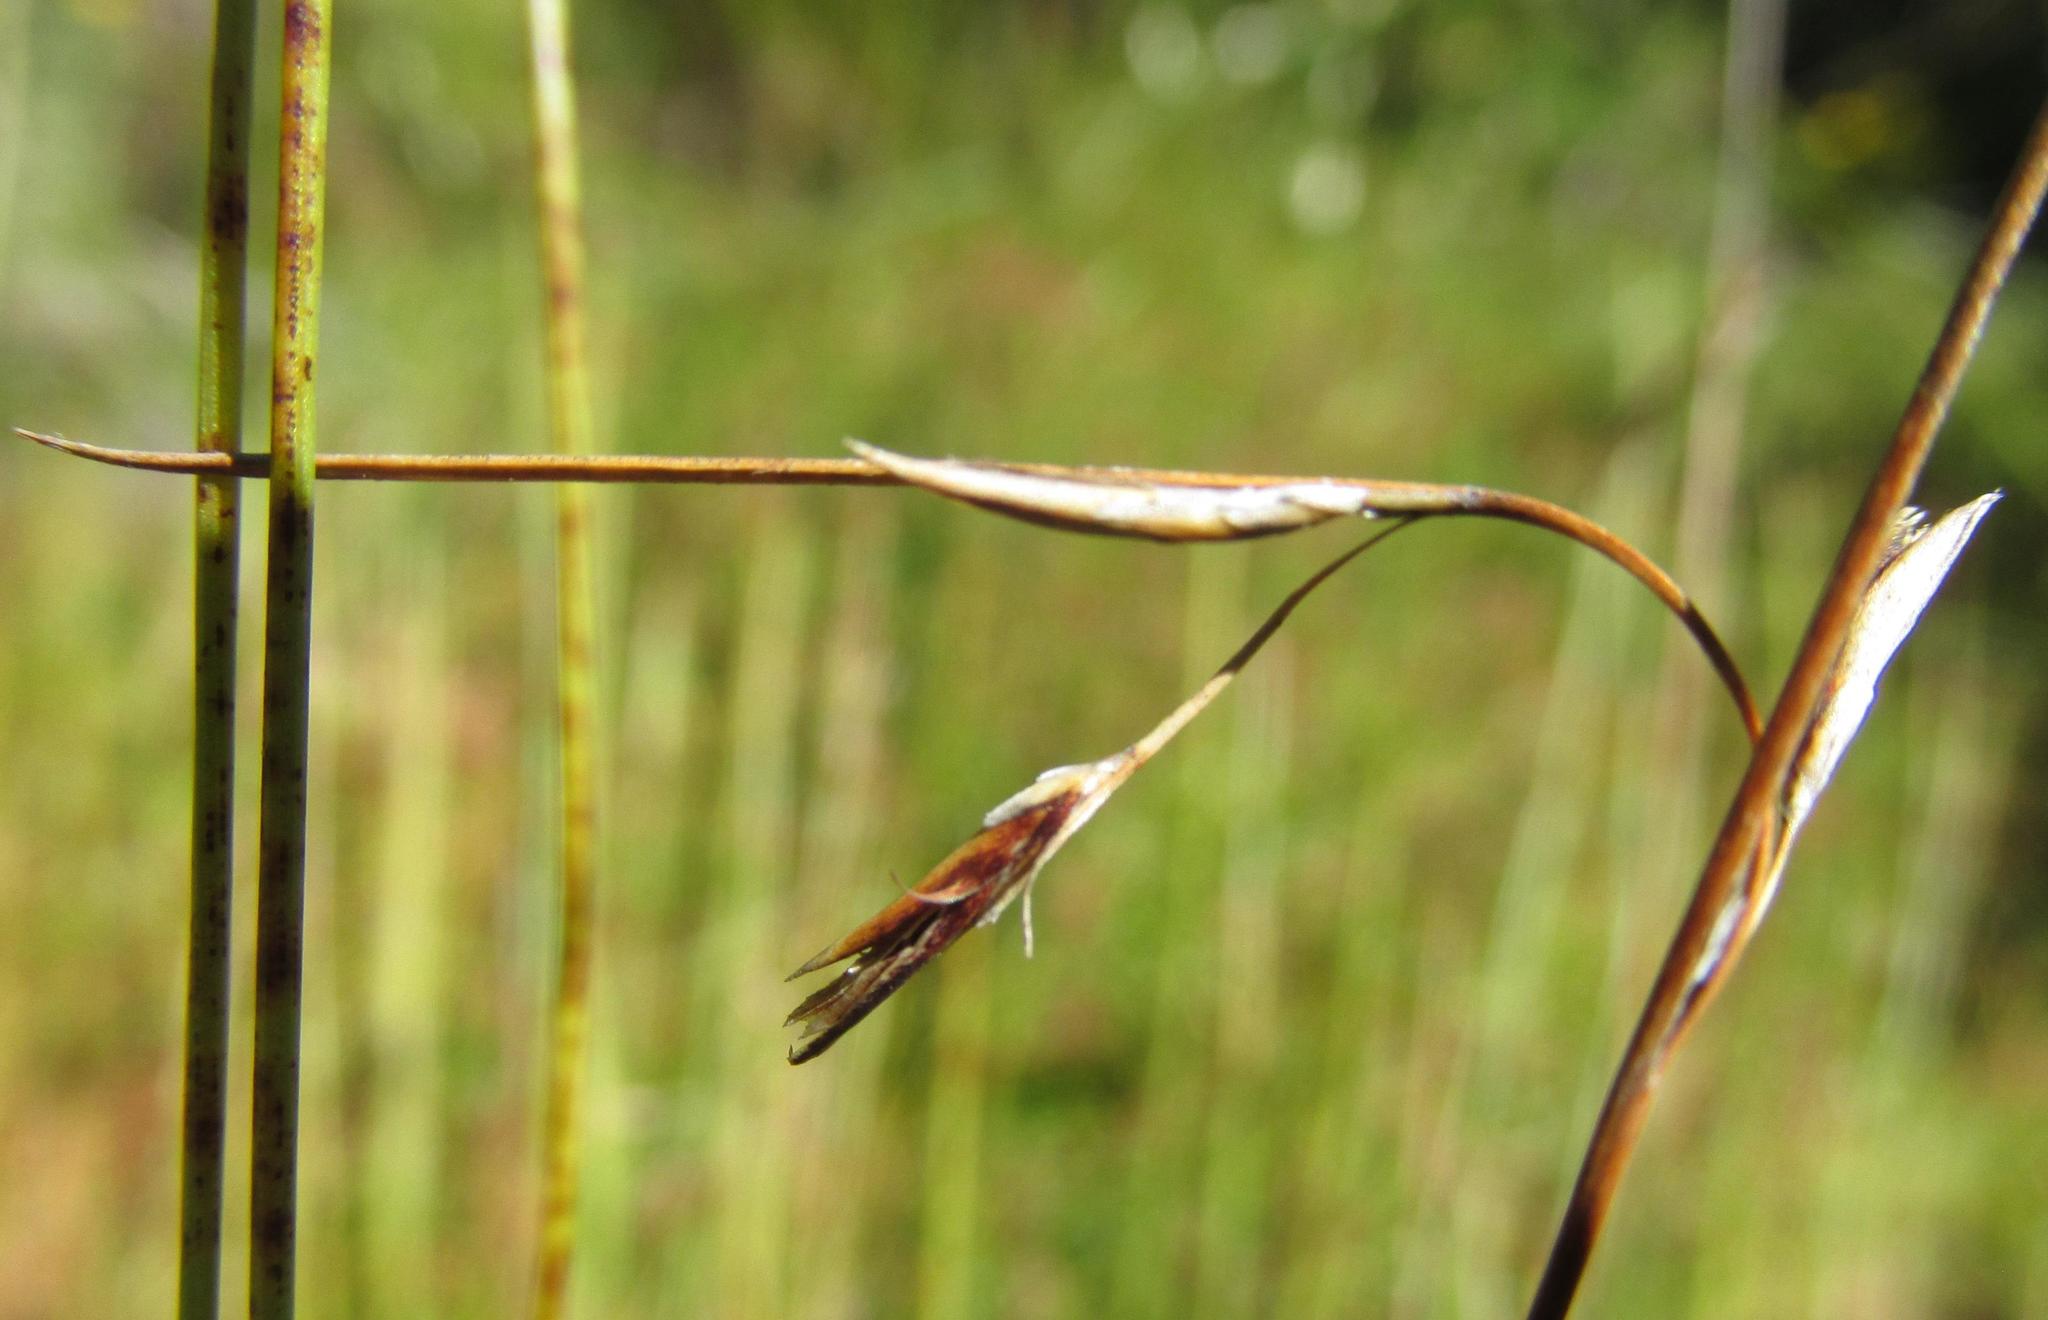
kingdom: Plantae
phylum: Tracheophyta
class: Liliopsida
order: Poales
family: Cyperaceae
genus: Schoenus
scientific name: Schoenus gracillimus
